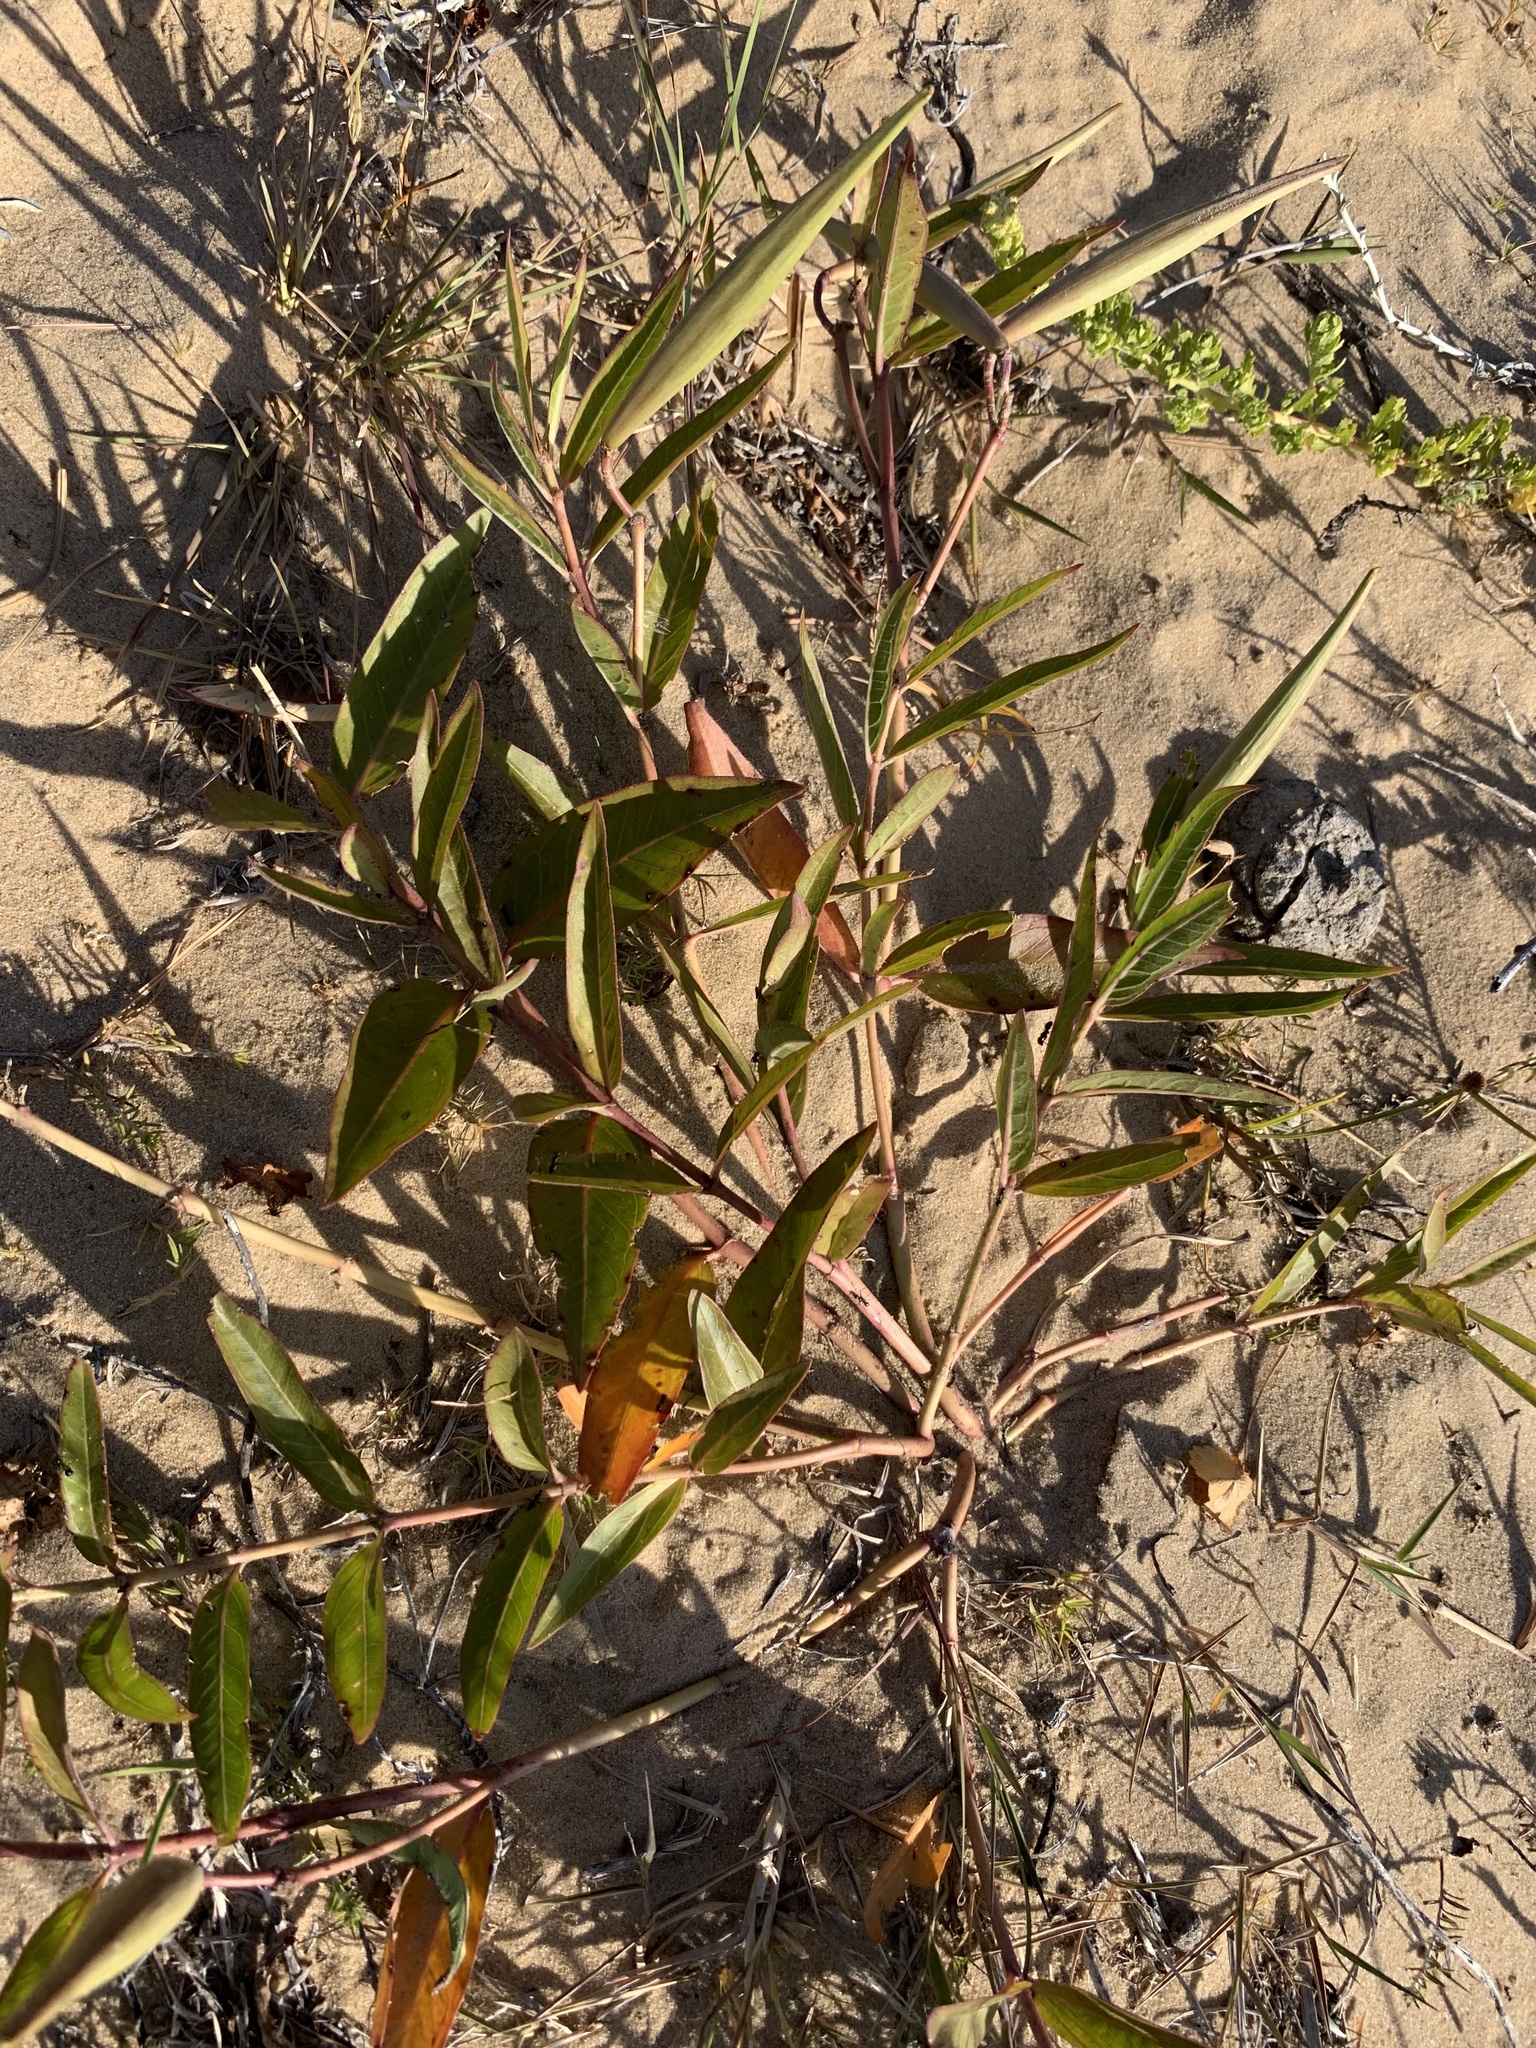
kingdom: Plantae
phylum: Tracheophyta
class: Magnoliopsida
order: Gentianales
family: Apocynaceae
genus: Asclepias
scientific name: Asclepias mellodora
